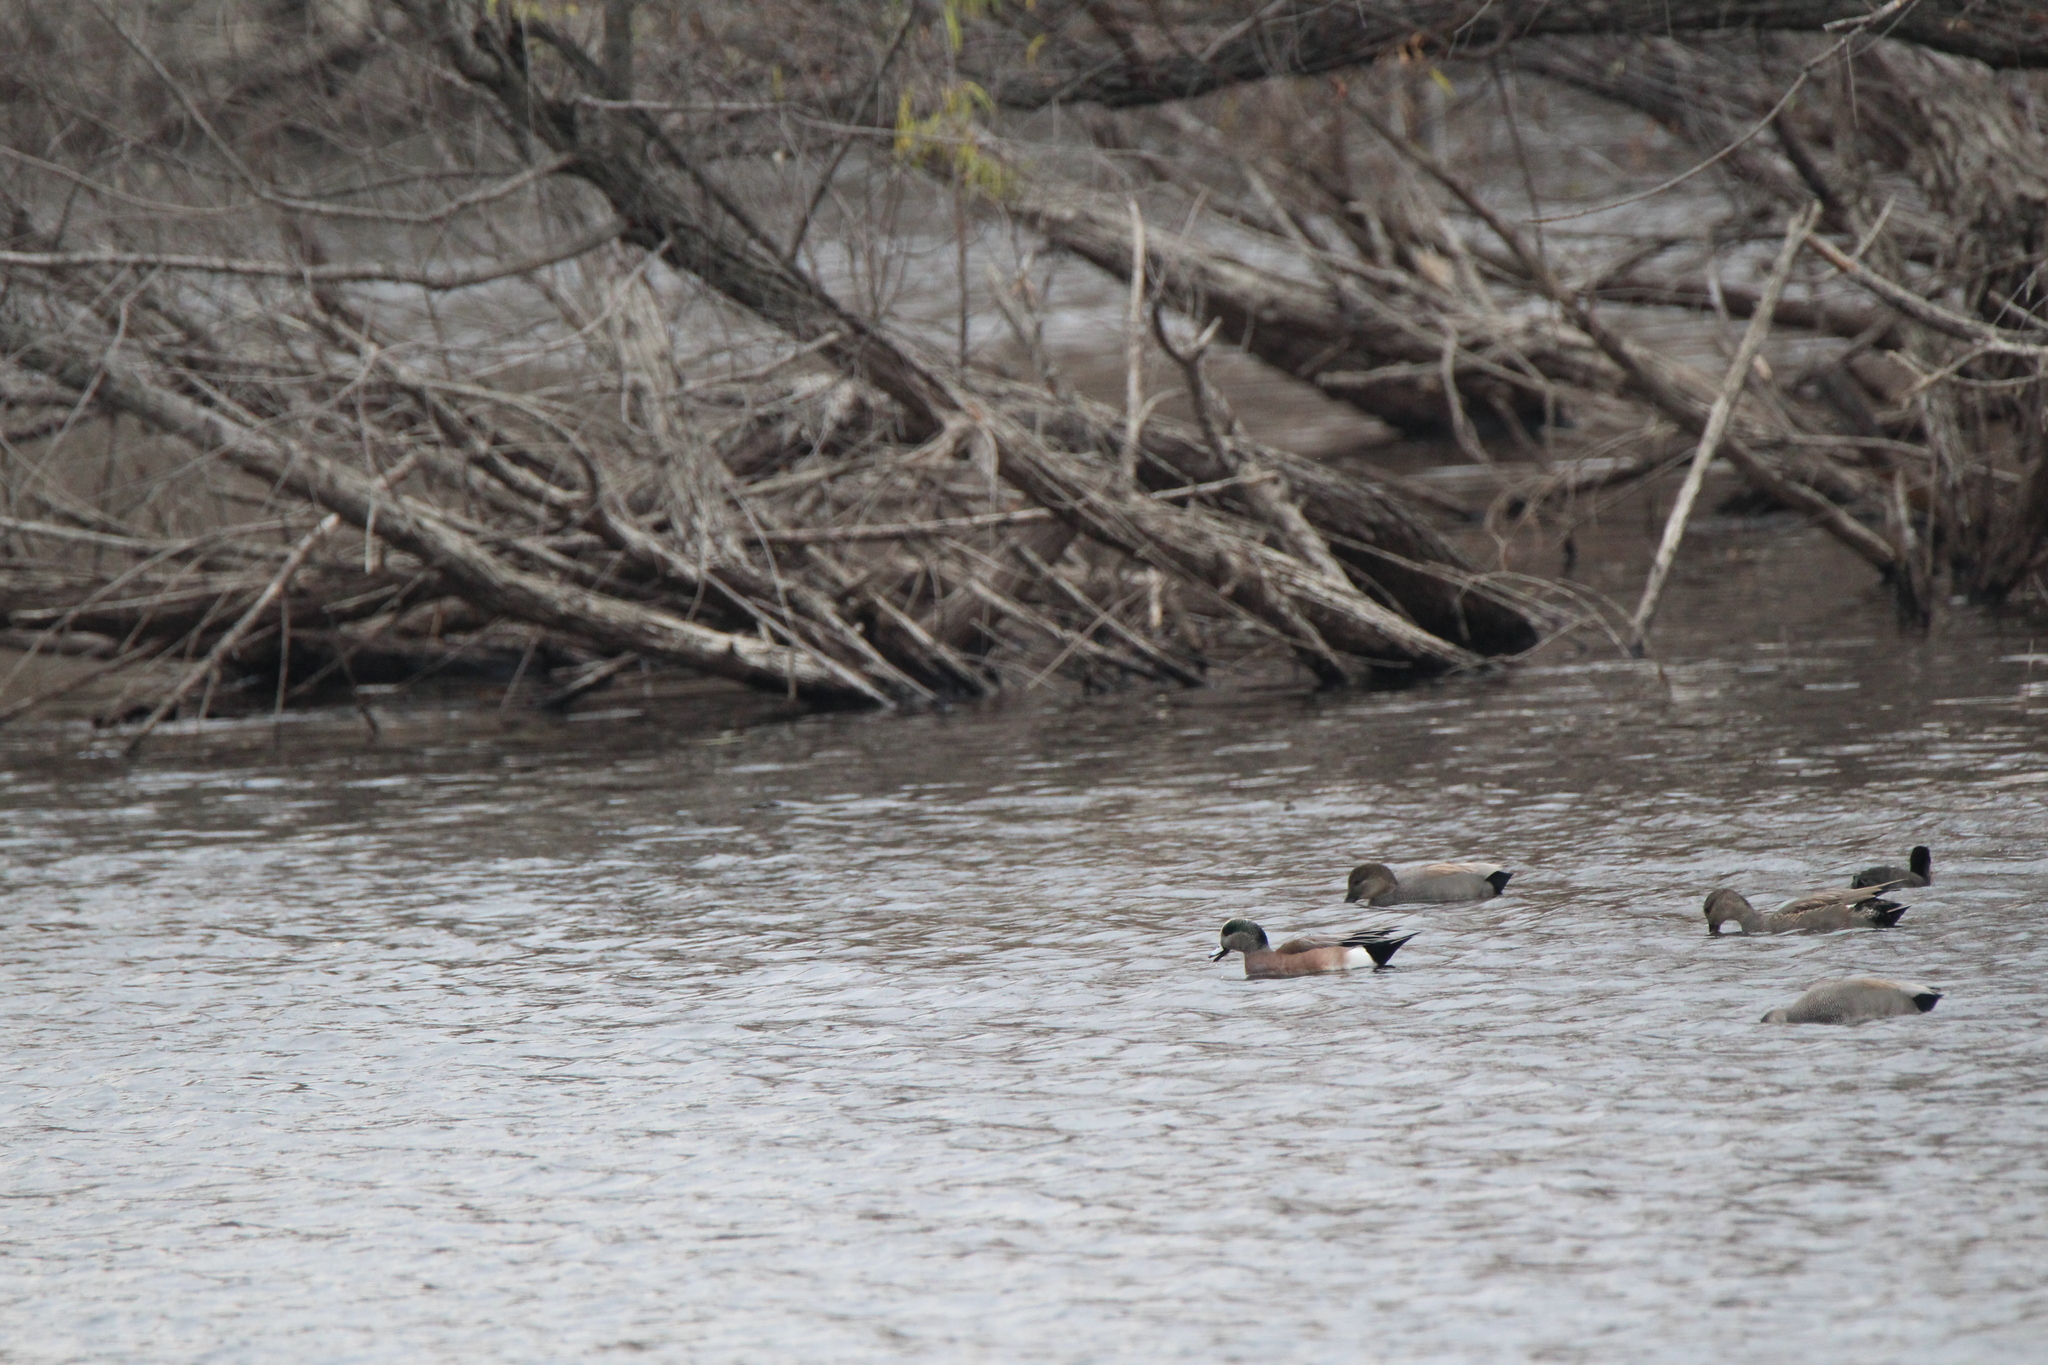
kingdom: Animalia
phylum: Chordata
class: Aves
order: Anseriformes
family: Anatidae
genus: Mareca
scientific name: Mareca americana
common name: American wigeon
